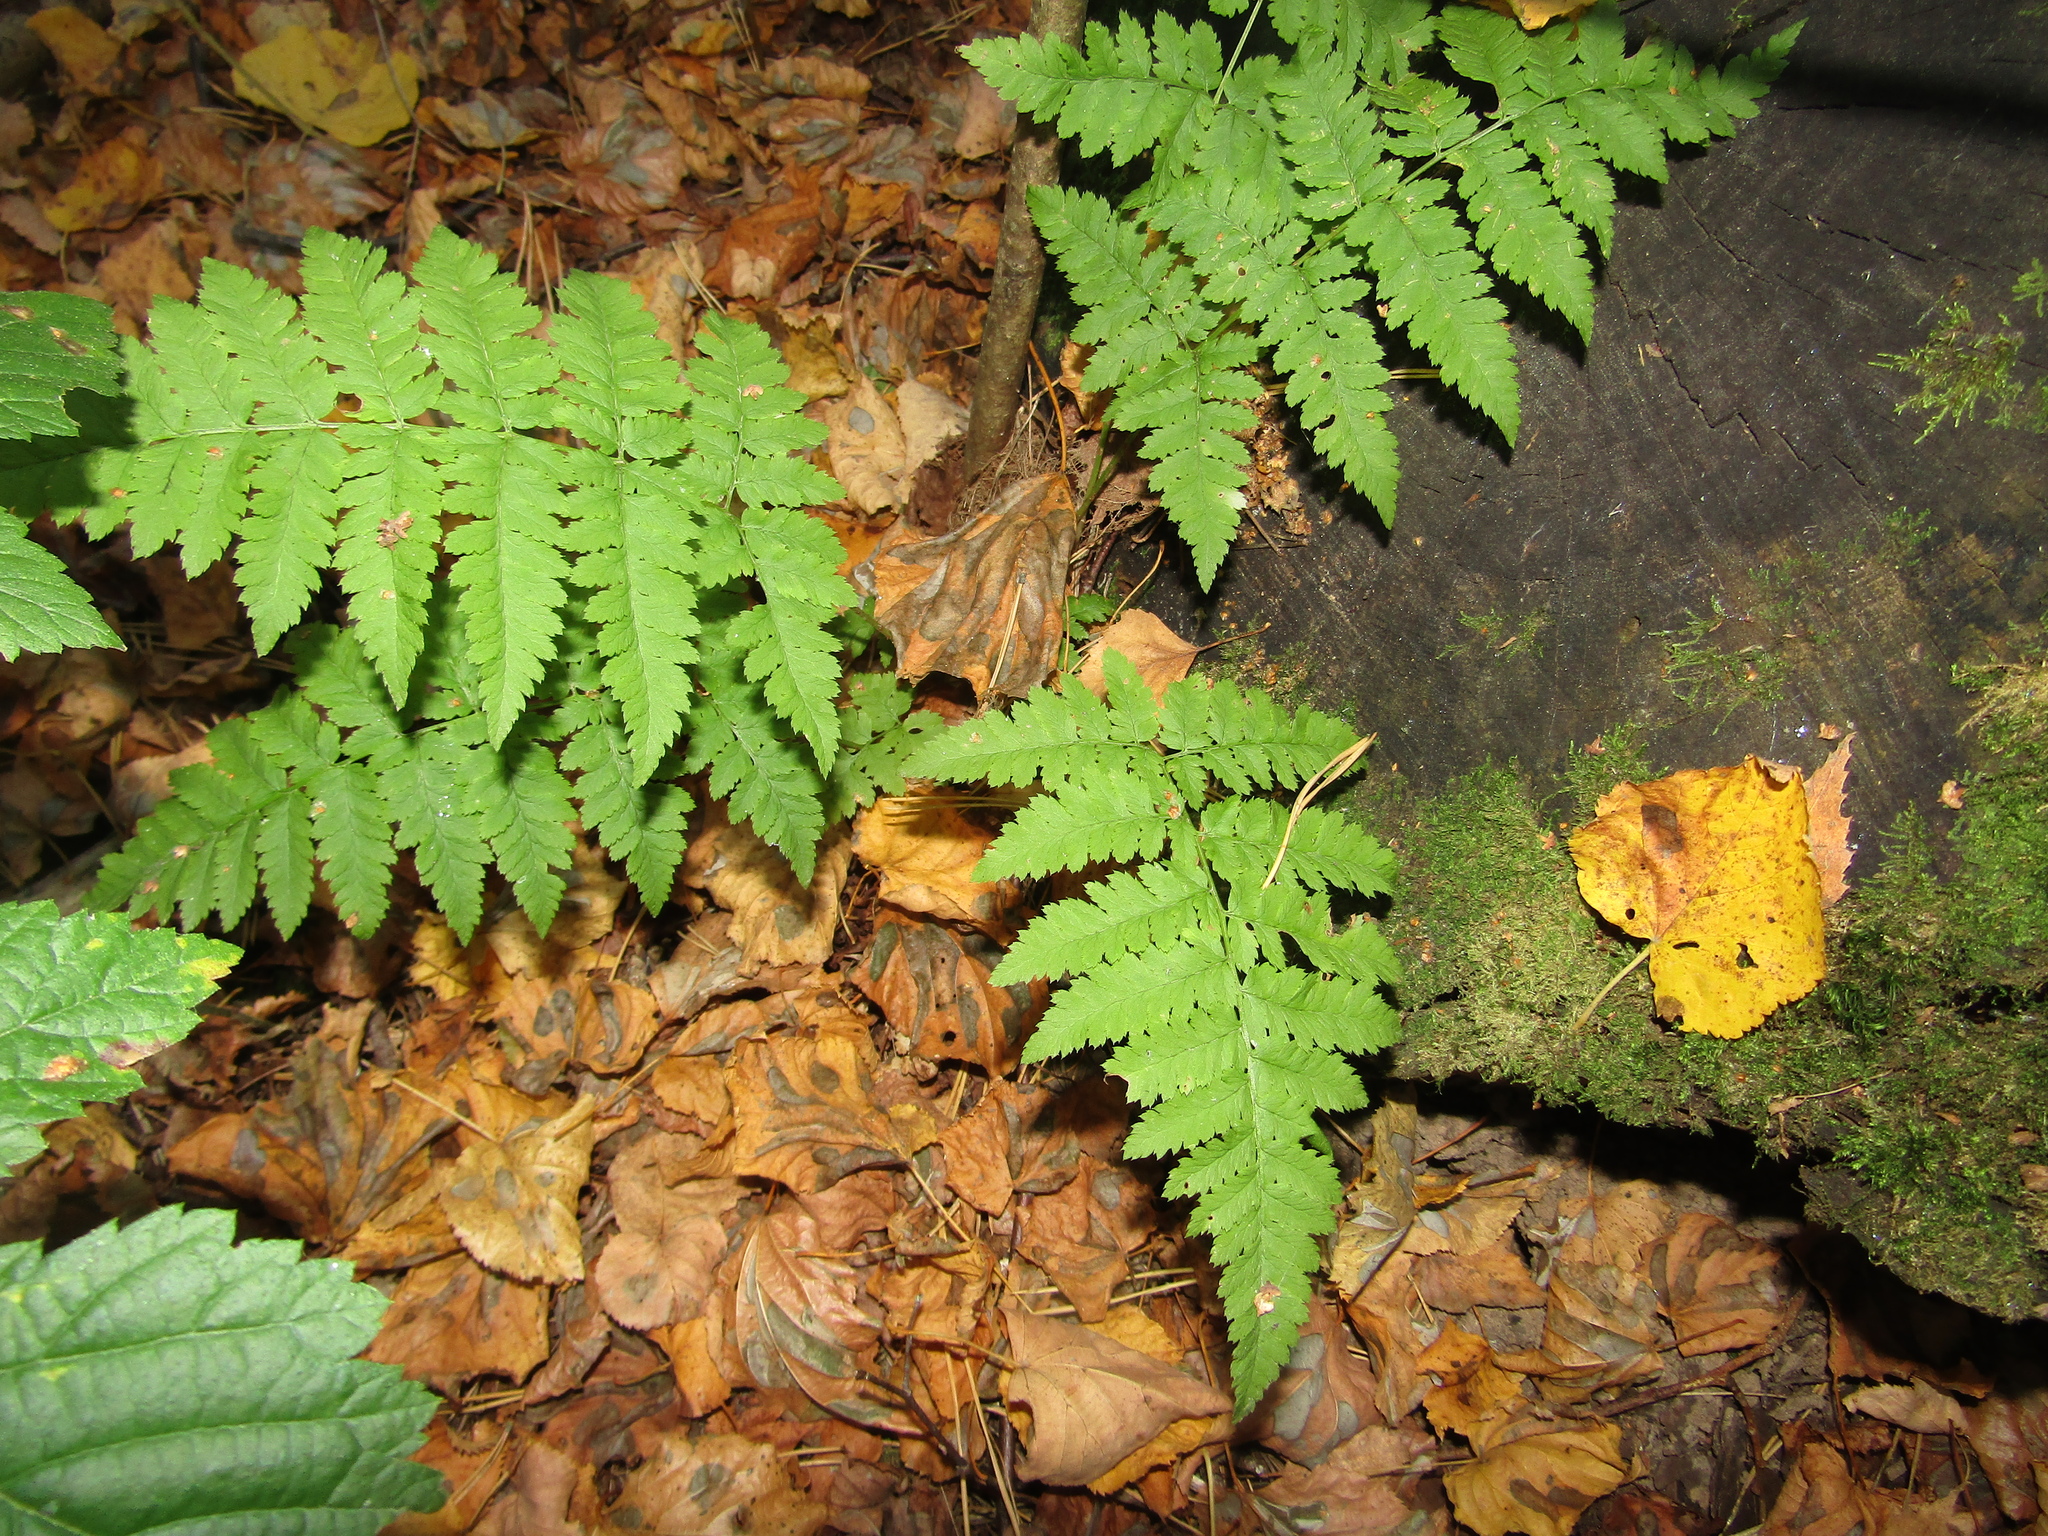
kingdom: Plantae
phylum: Tracheophyta
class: Polypodiopsida
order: Polypodiales
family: Dryopteridaceae
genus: Dryopteris
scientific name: Dryopteris carthusiana
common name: Narrow buckler-fern
